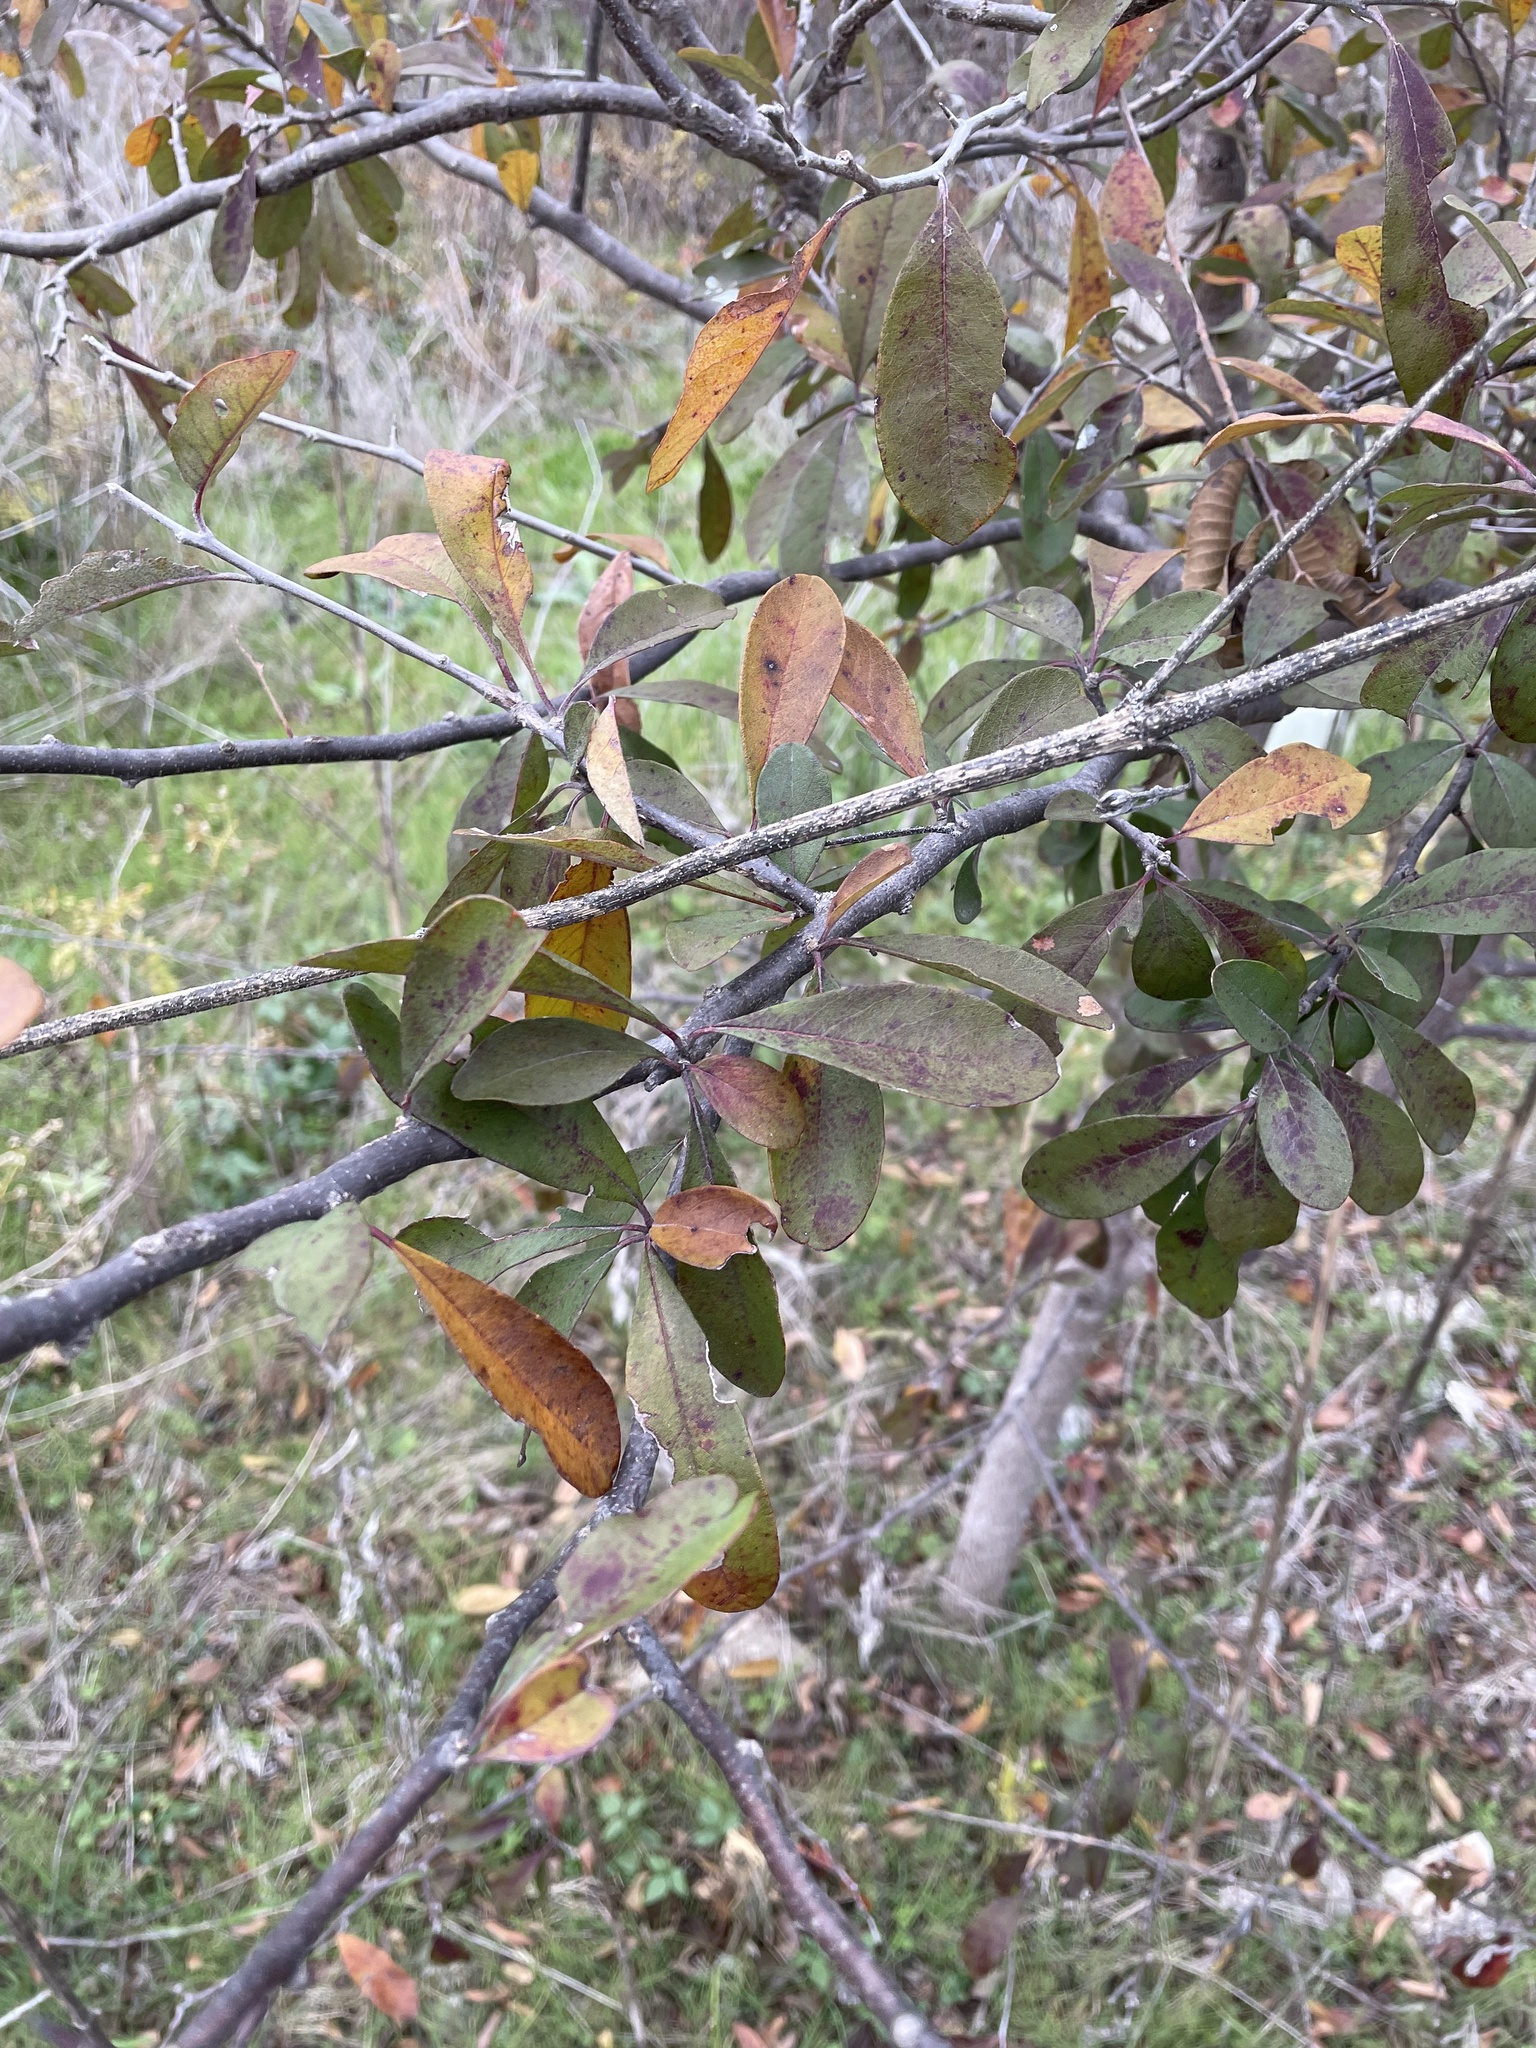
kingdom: Plantae
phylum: Tracheophyta
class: Magnoliopsida
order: Ericales
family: Sapotaceae
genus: Sideroxylon
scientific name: Sideroxylon lanuginosum
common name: Chittamwood
